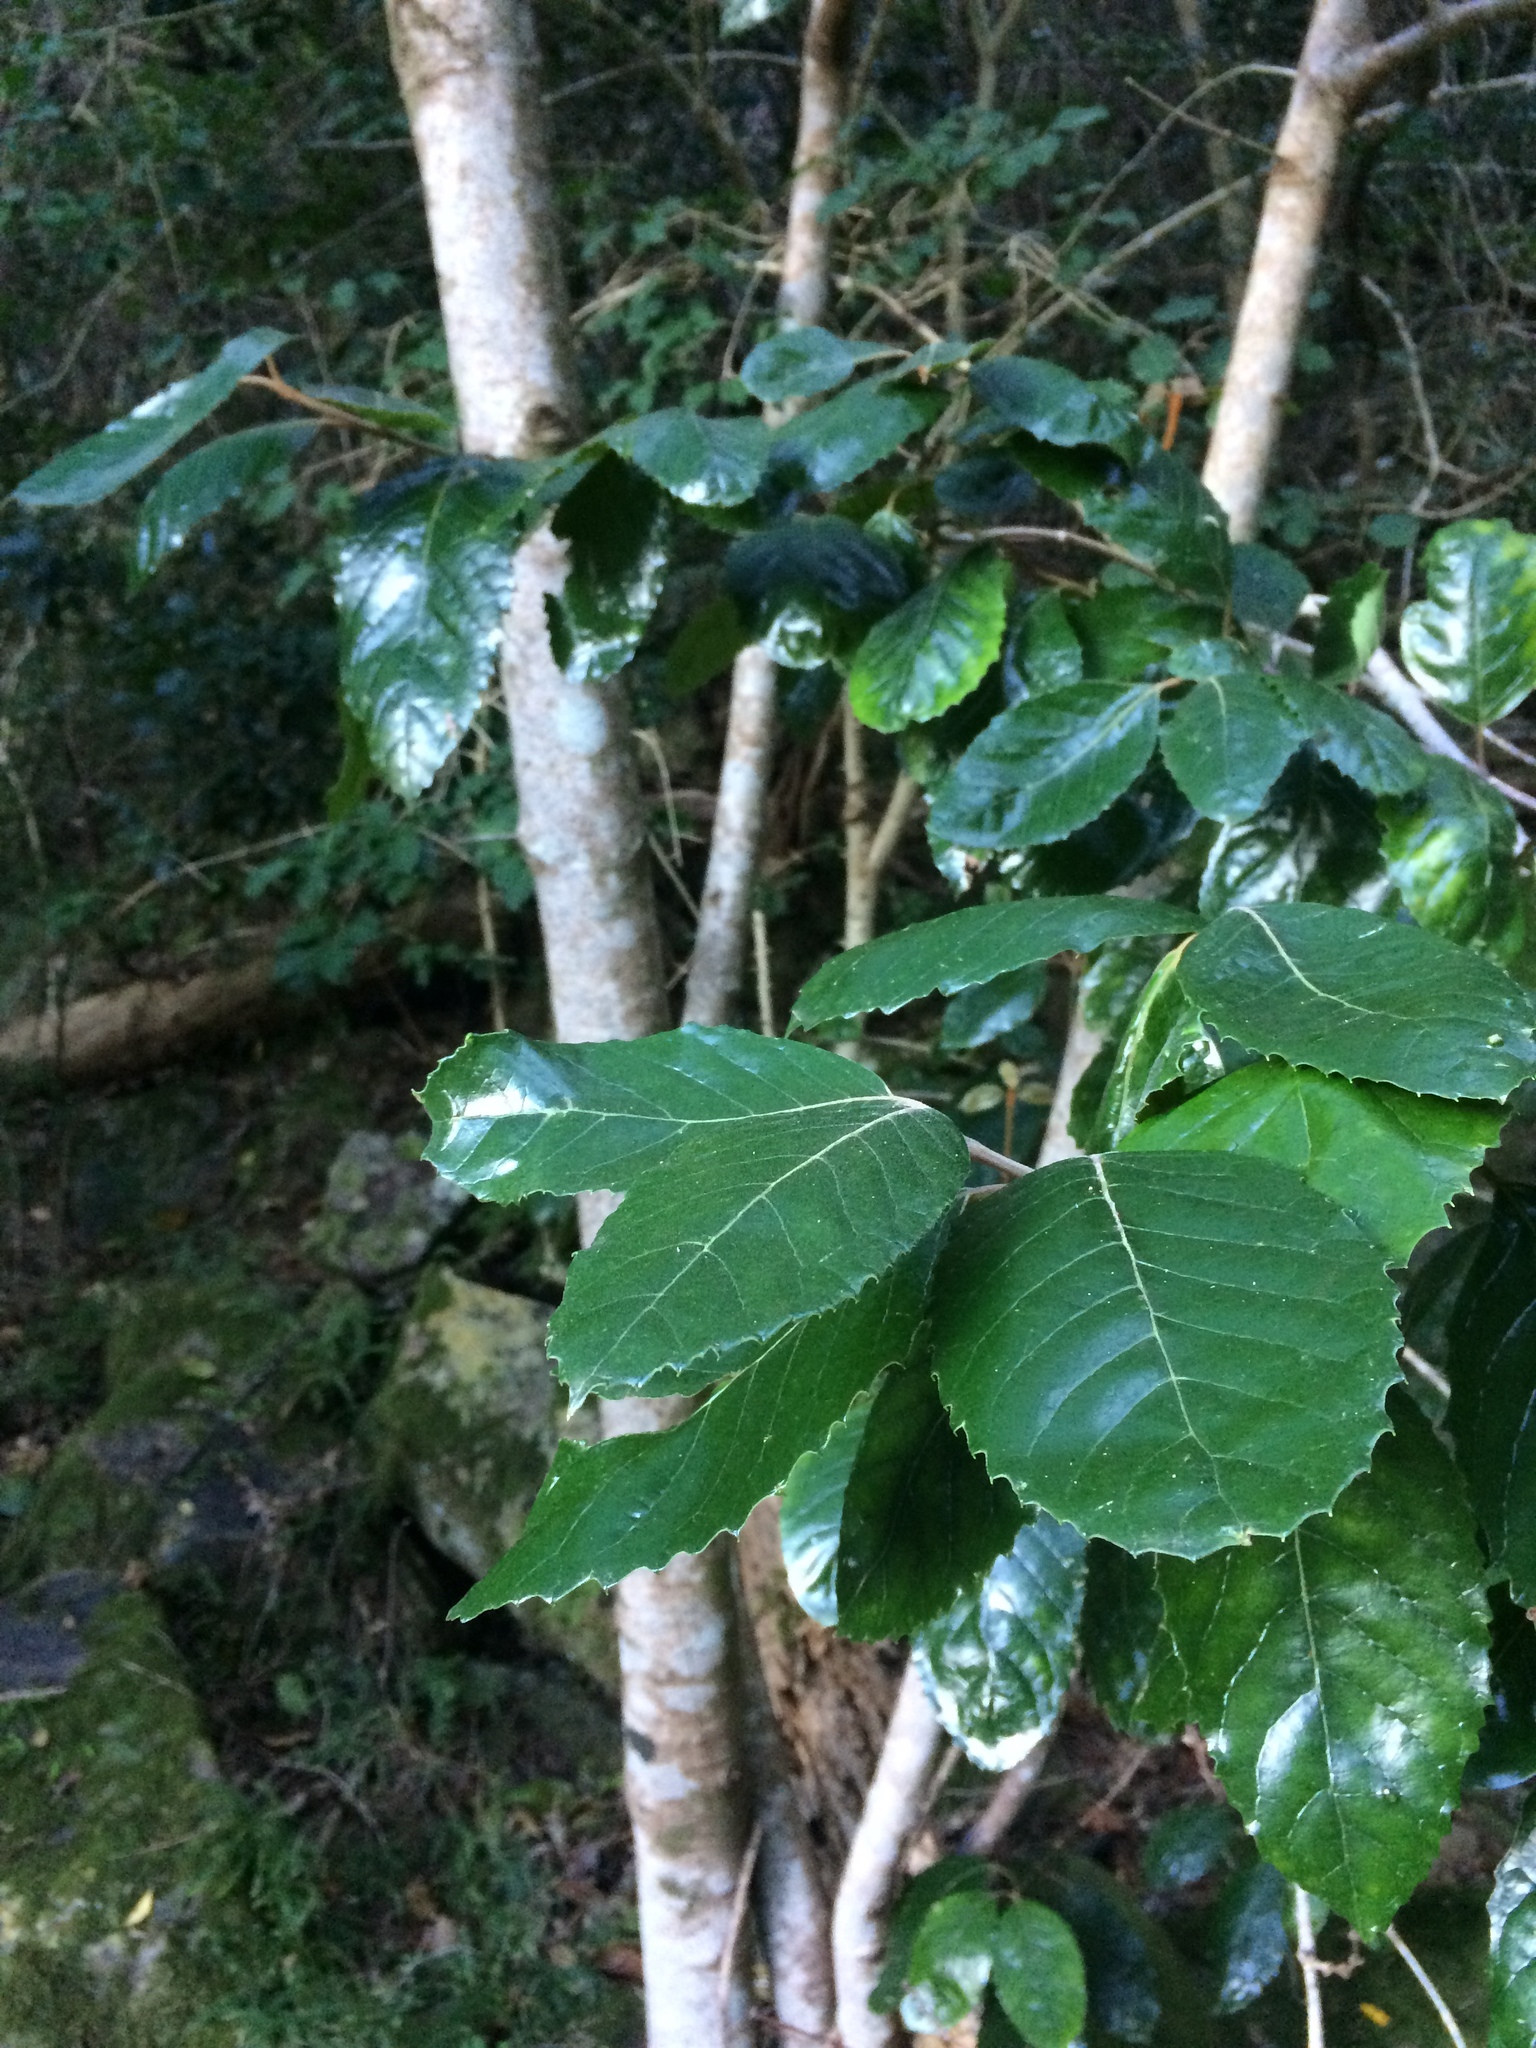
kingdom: Plantae
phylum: Tracheophyta
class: Magnoliopsida
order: Cornales
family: Curtisiaceae
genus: Curtisia
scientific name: Curtisia dentata
